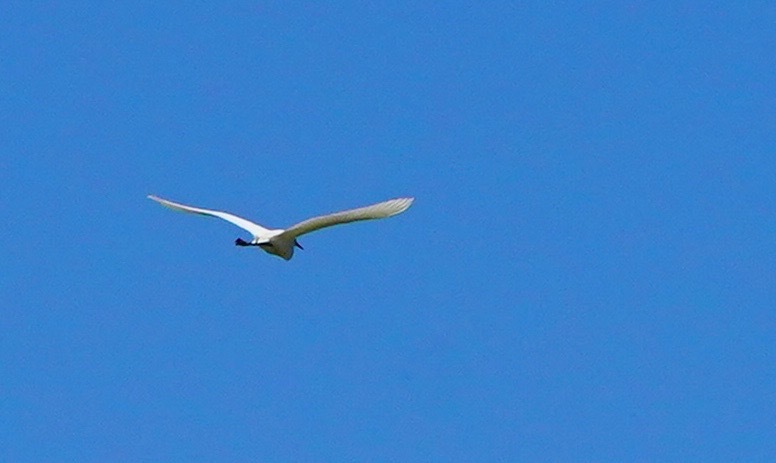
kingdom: Animalia
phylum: Chordata
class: Aves
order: Pelecaniformes
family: Ardeidae
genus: Egretta
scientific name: Egretta thula
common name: Snowy egret
